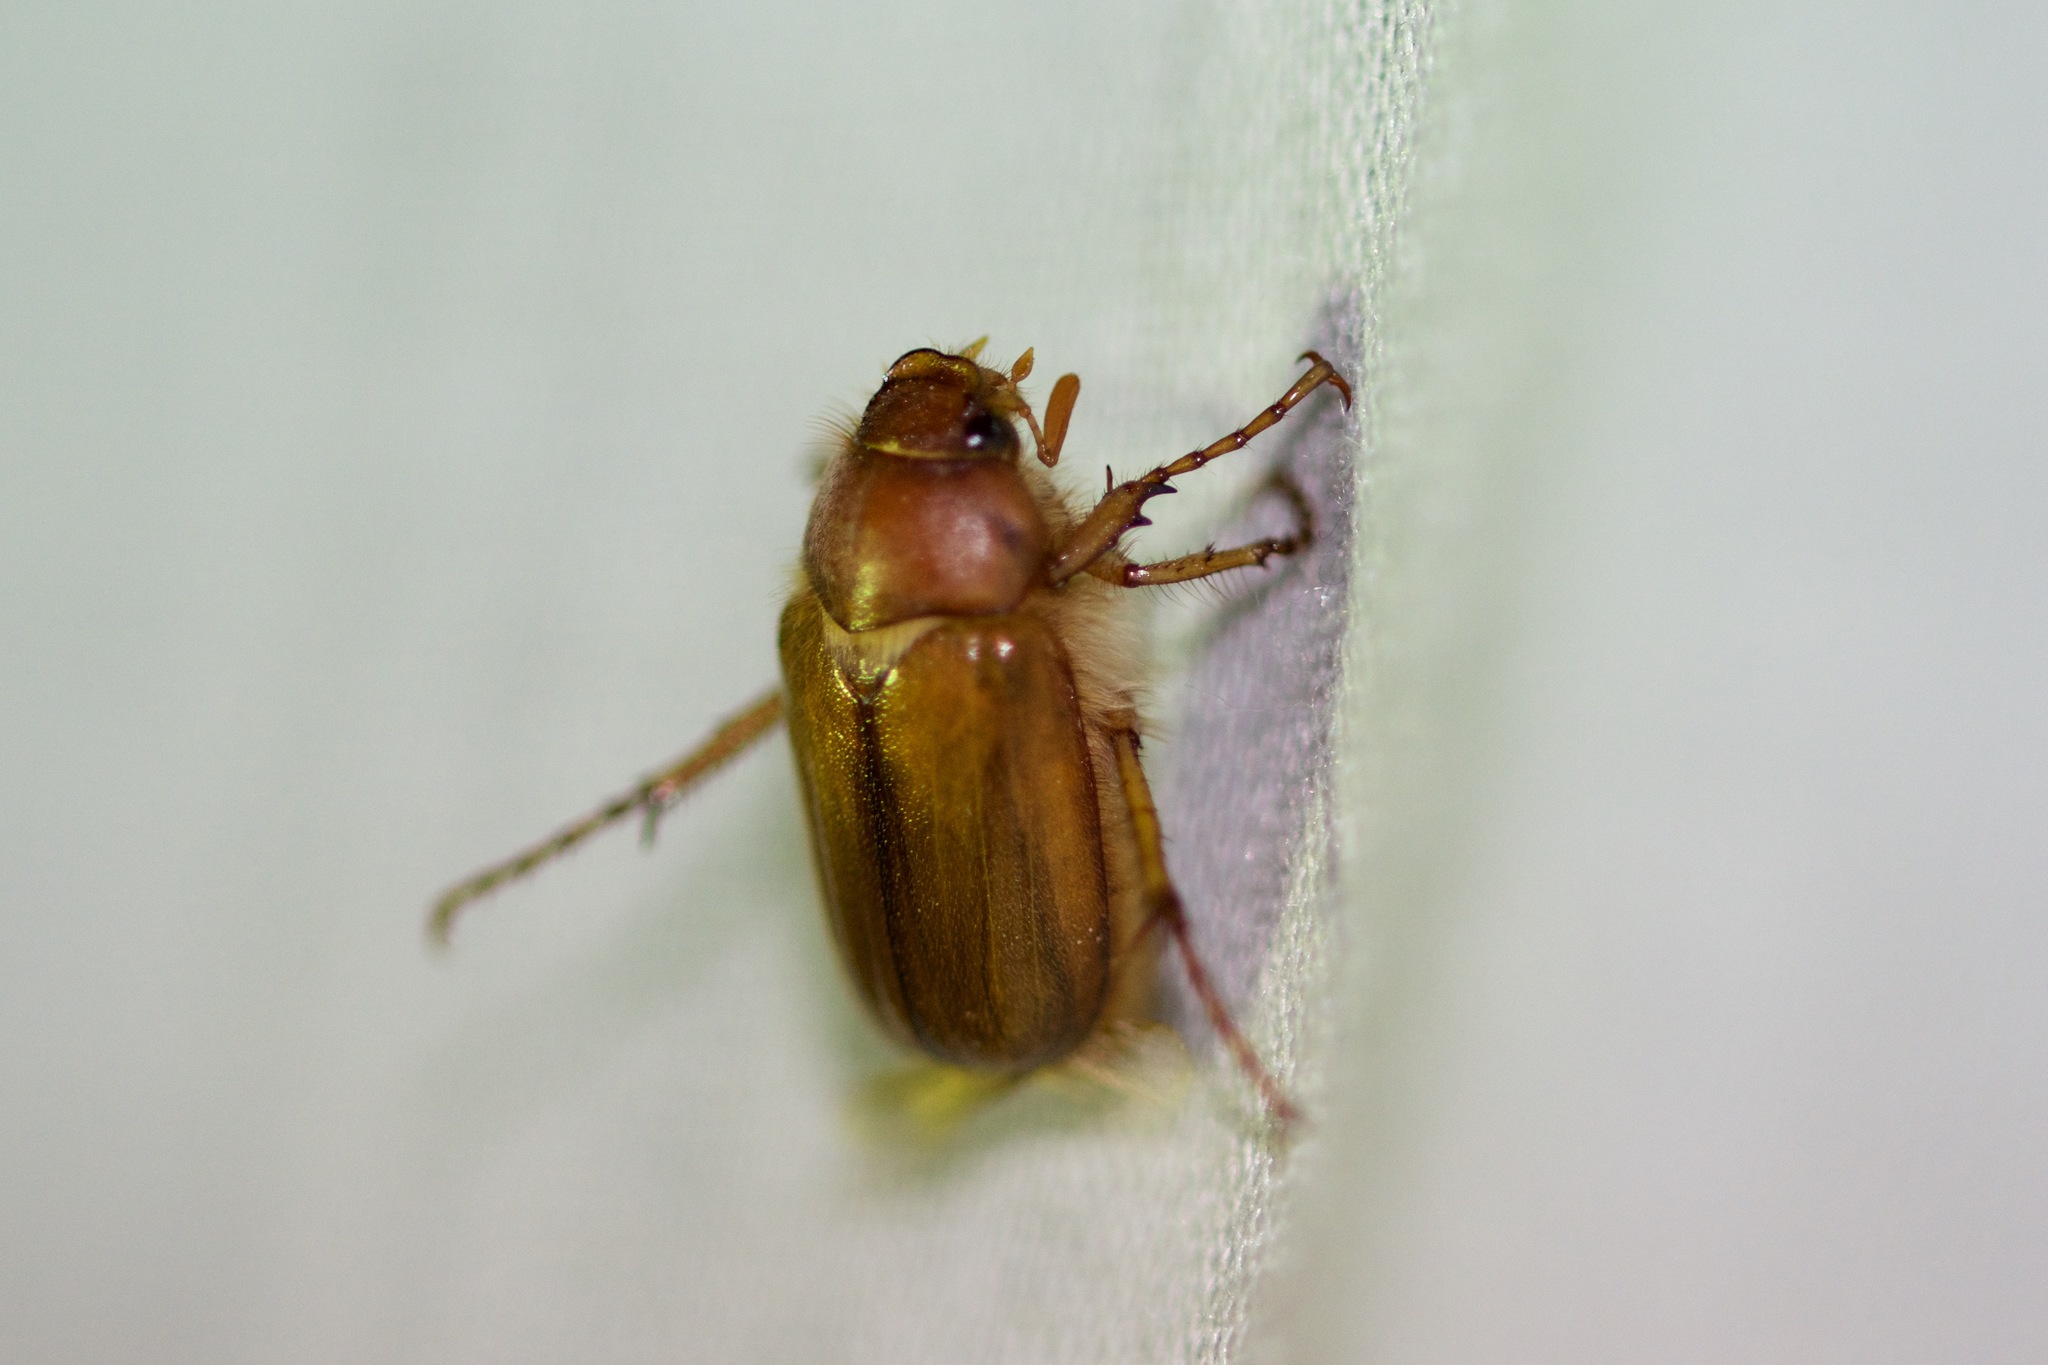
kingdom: Animalia
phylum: Arthropoda
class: Insecta
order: Coleoptera
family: Scarabaeidae
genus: Amphimallon
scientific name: Amphimallon majale
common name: European chafer
